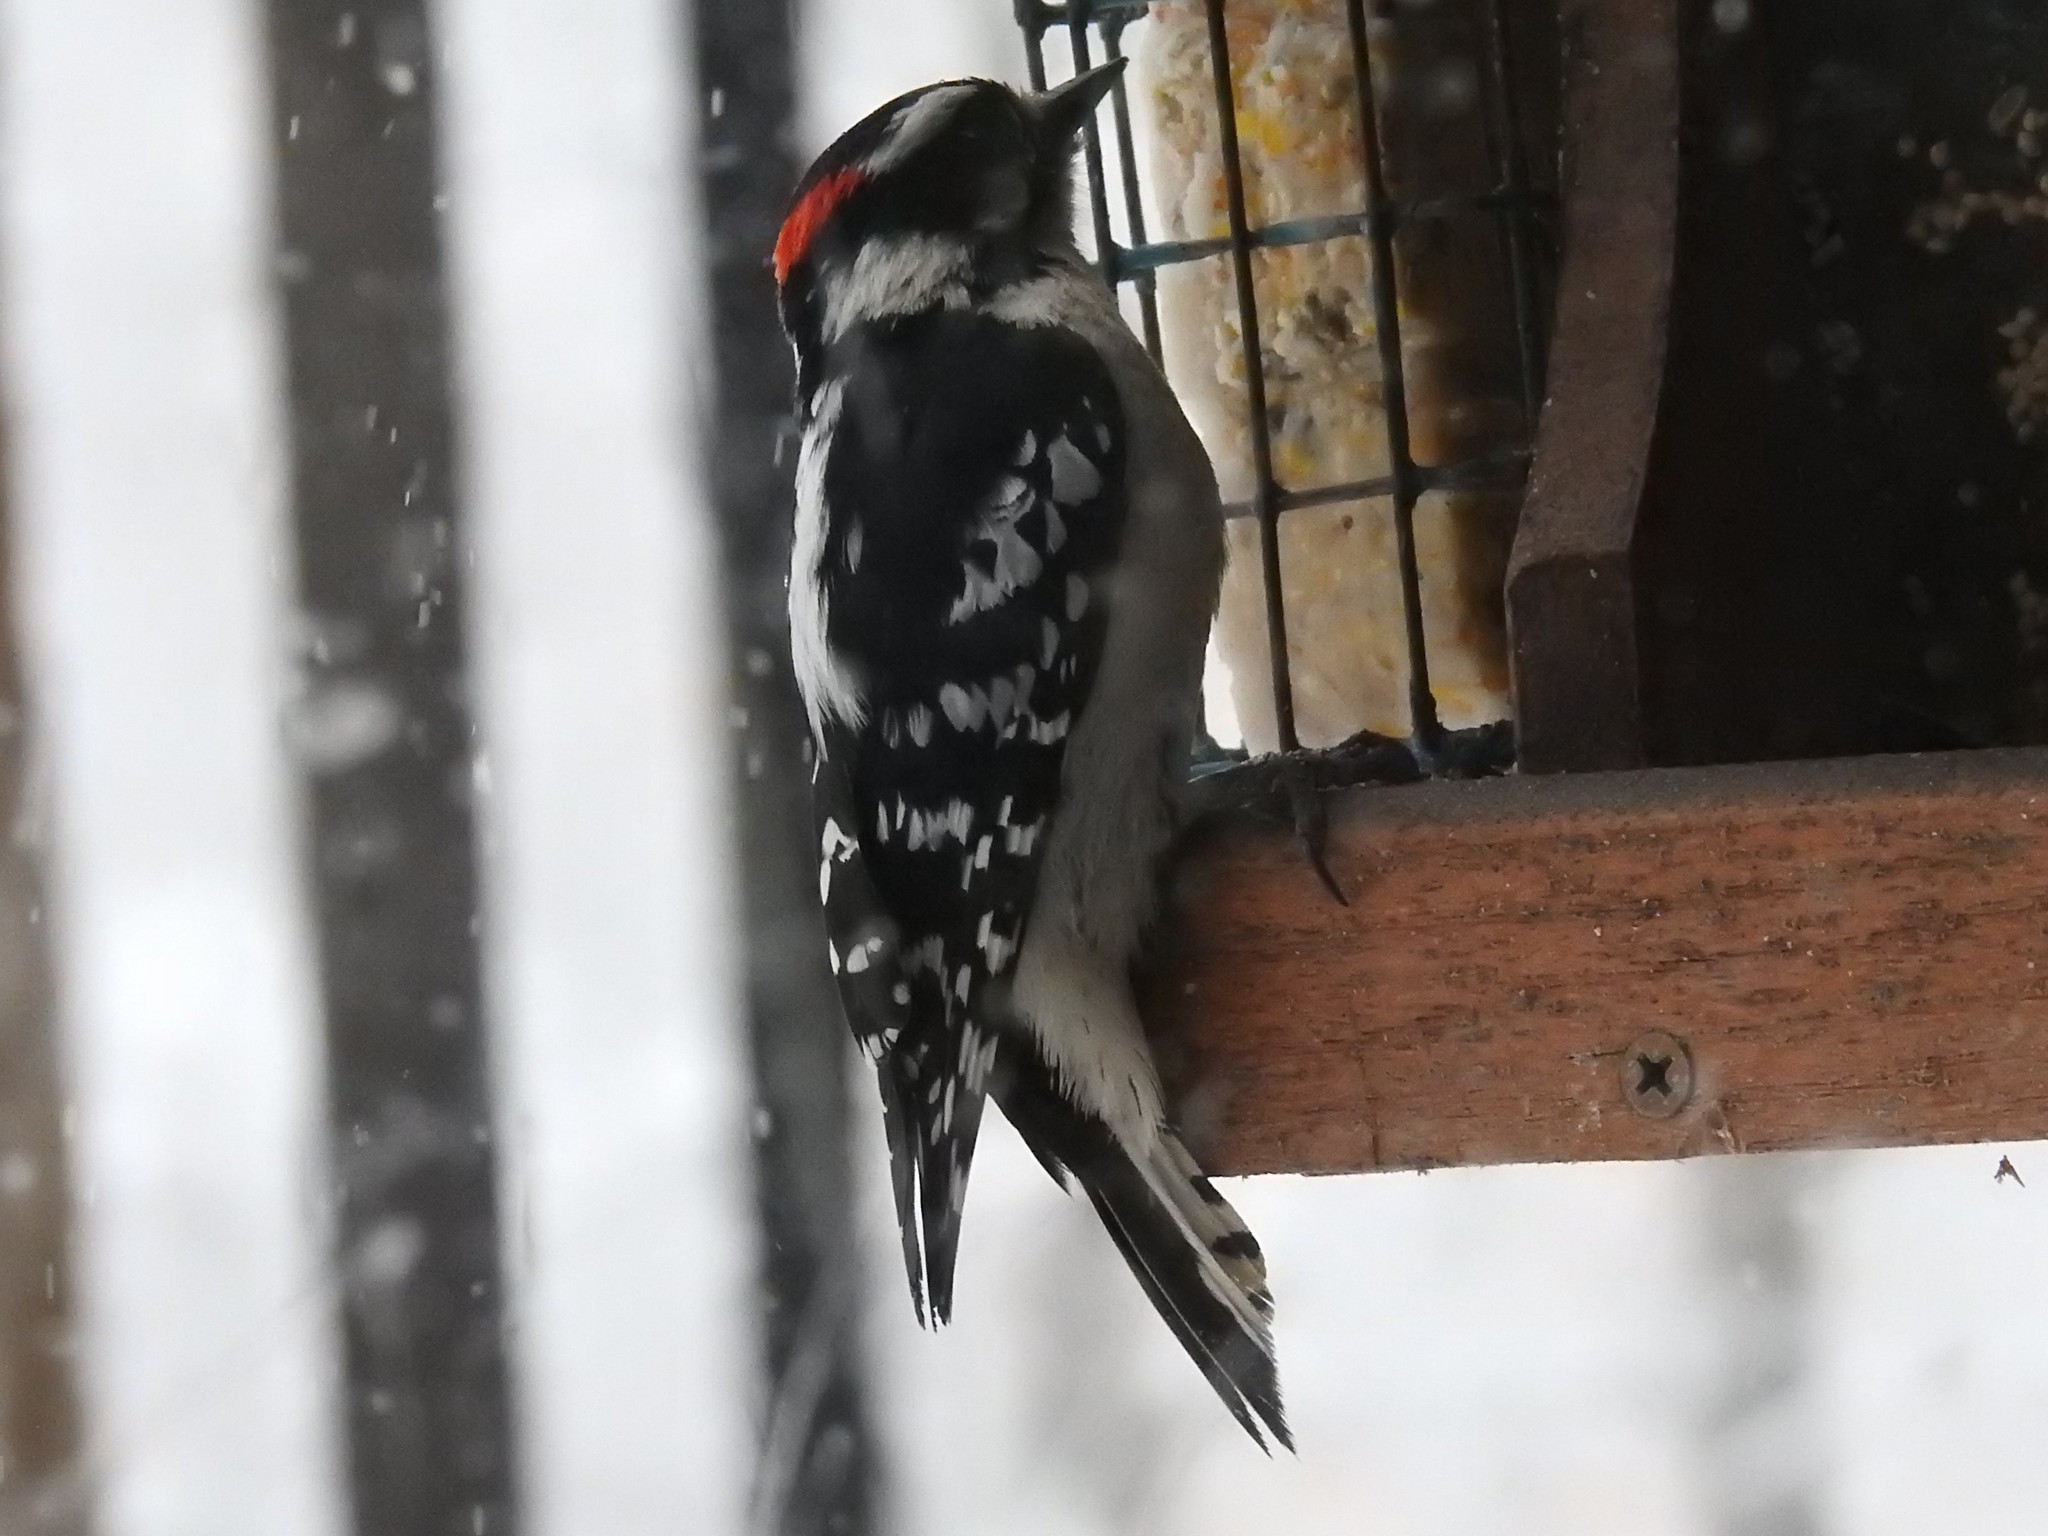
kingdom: Animalia
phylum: Chordata
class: Aves
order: Piciformes
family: Picidae
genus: Dryobates
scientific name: Dryobates pubescens
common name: Downy woodpecker
